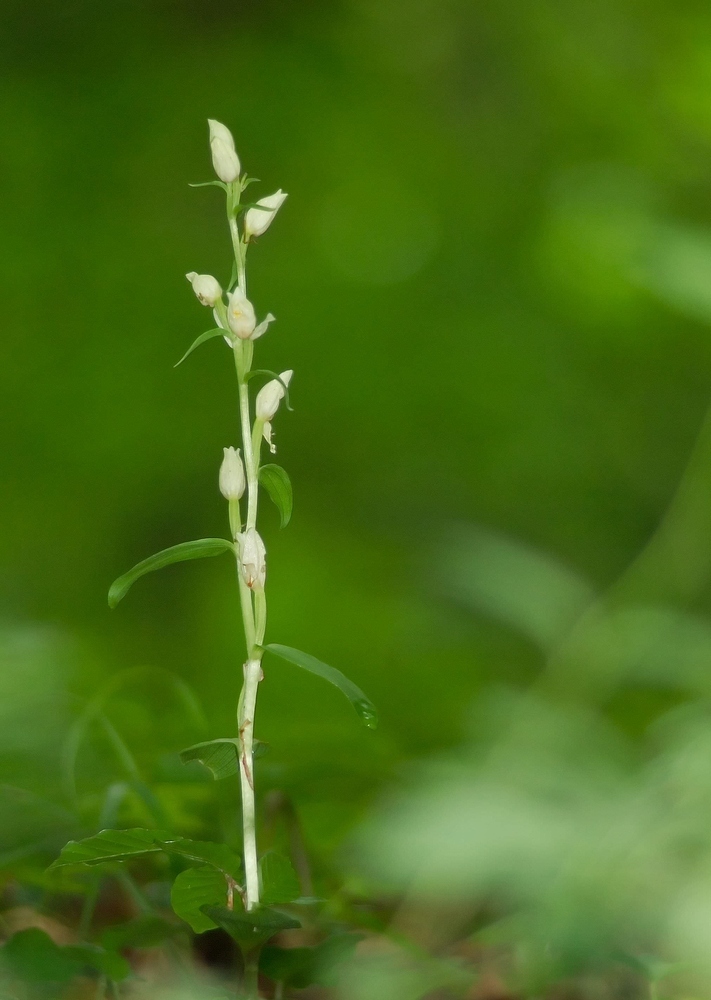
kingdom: Plantae
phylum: Tracheophyta
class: Liliopsida
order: Asparagales
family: Orchidaceae
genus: Cephalanthera
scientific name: Cephalanthera damasonium
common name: White helleborine
